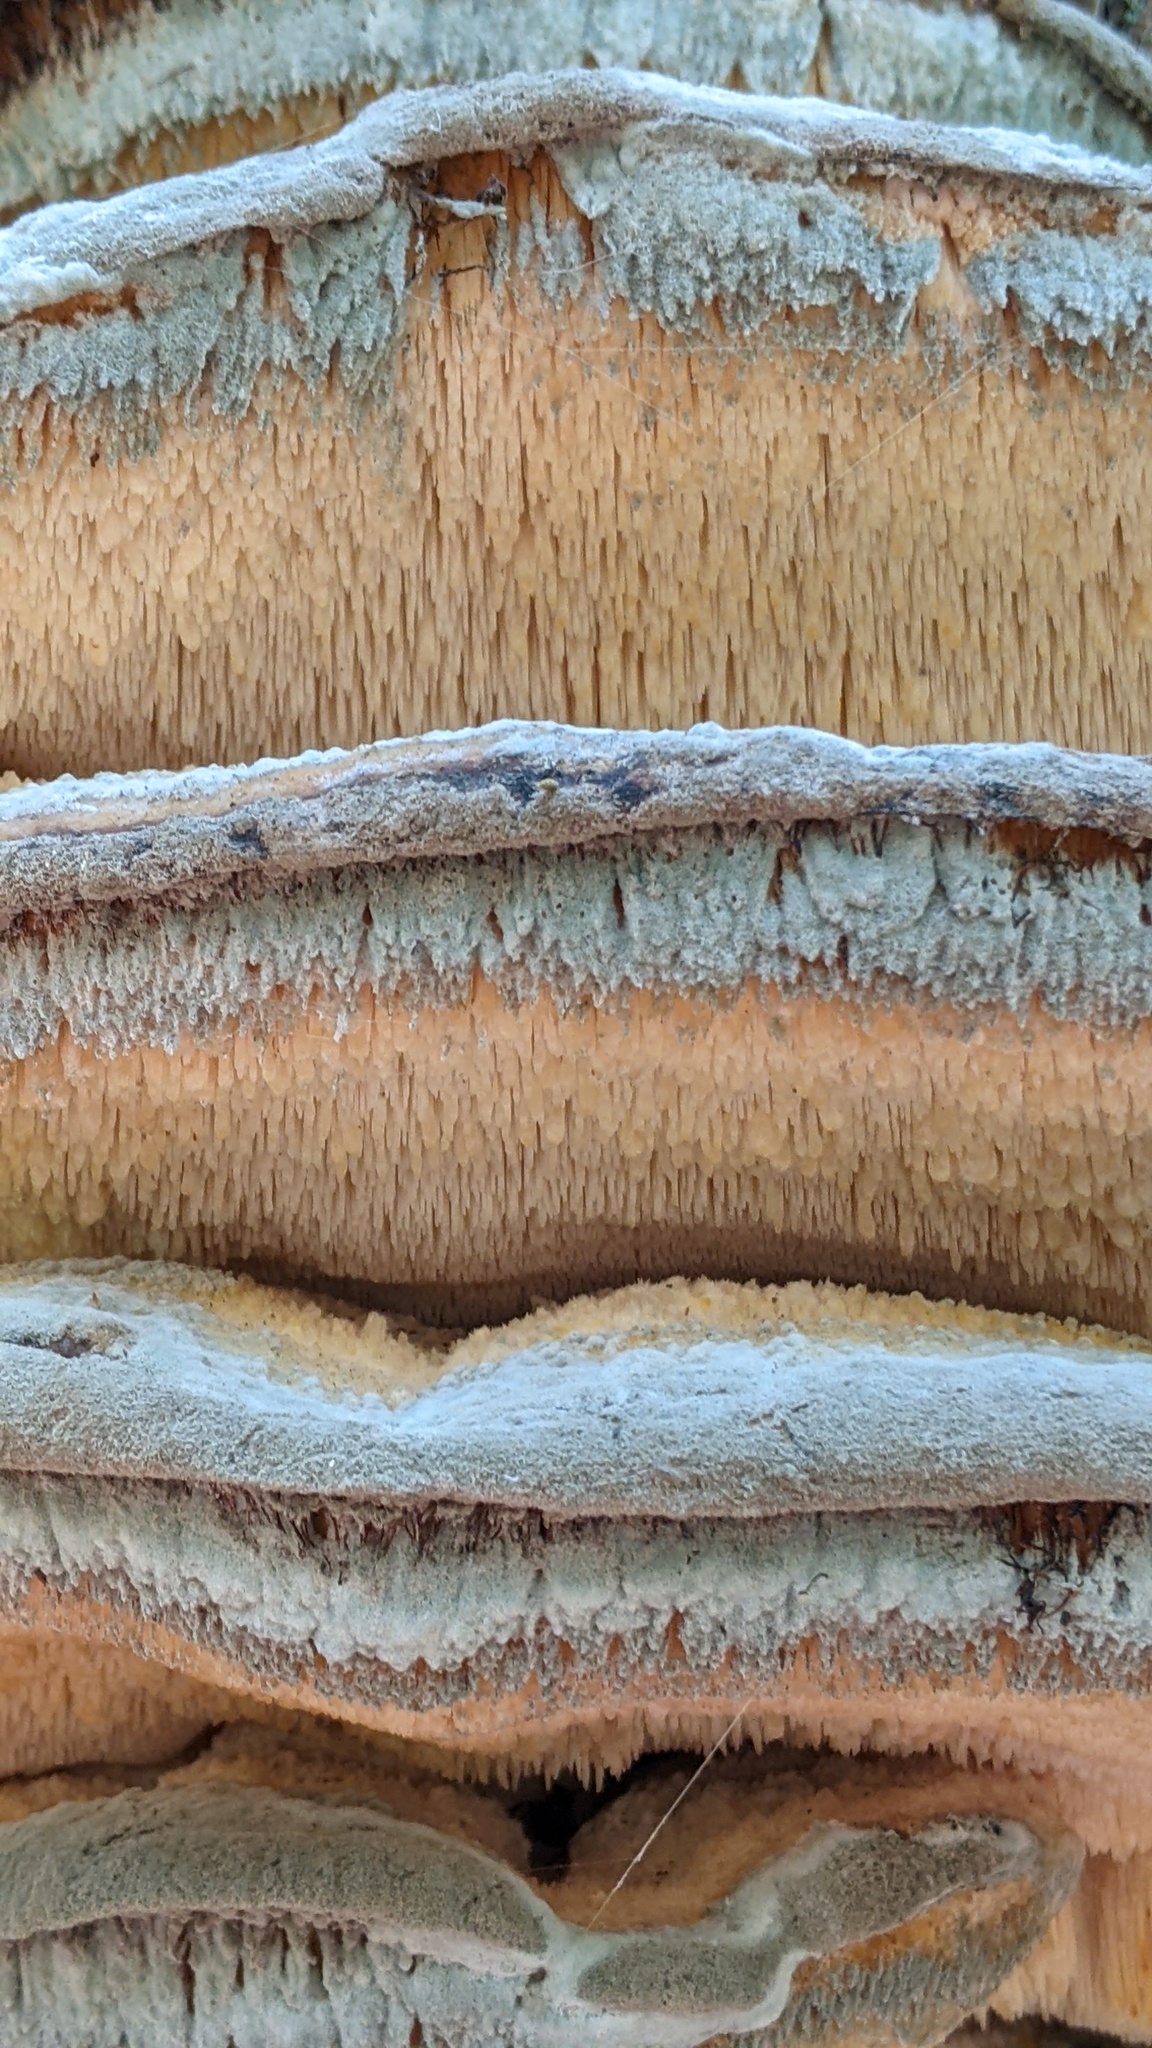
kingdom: Fungi
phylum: Basidiomycota
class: Agaricomycetes
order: Polyporales
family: Meruliaceae
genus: Climacodon
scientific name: Climacodon septentrionalis
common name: Northern tooth
